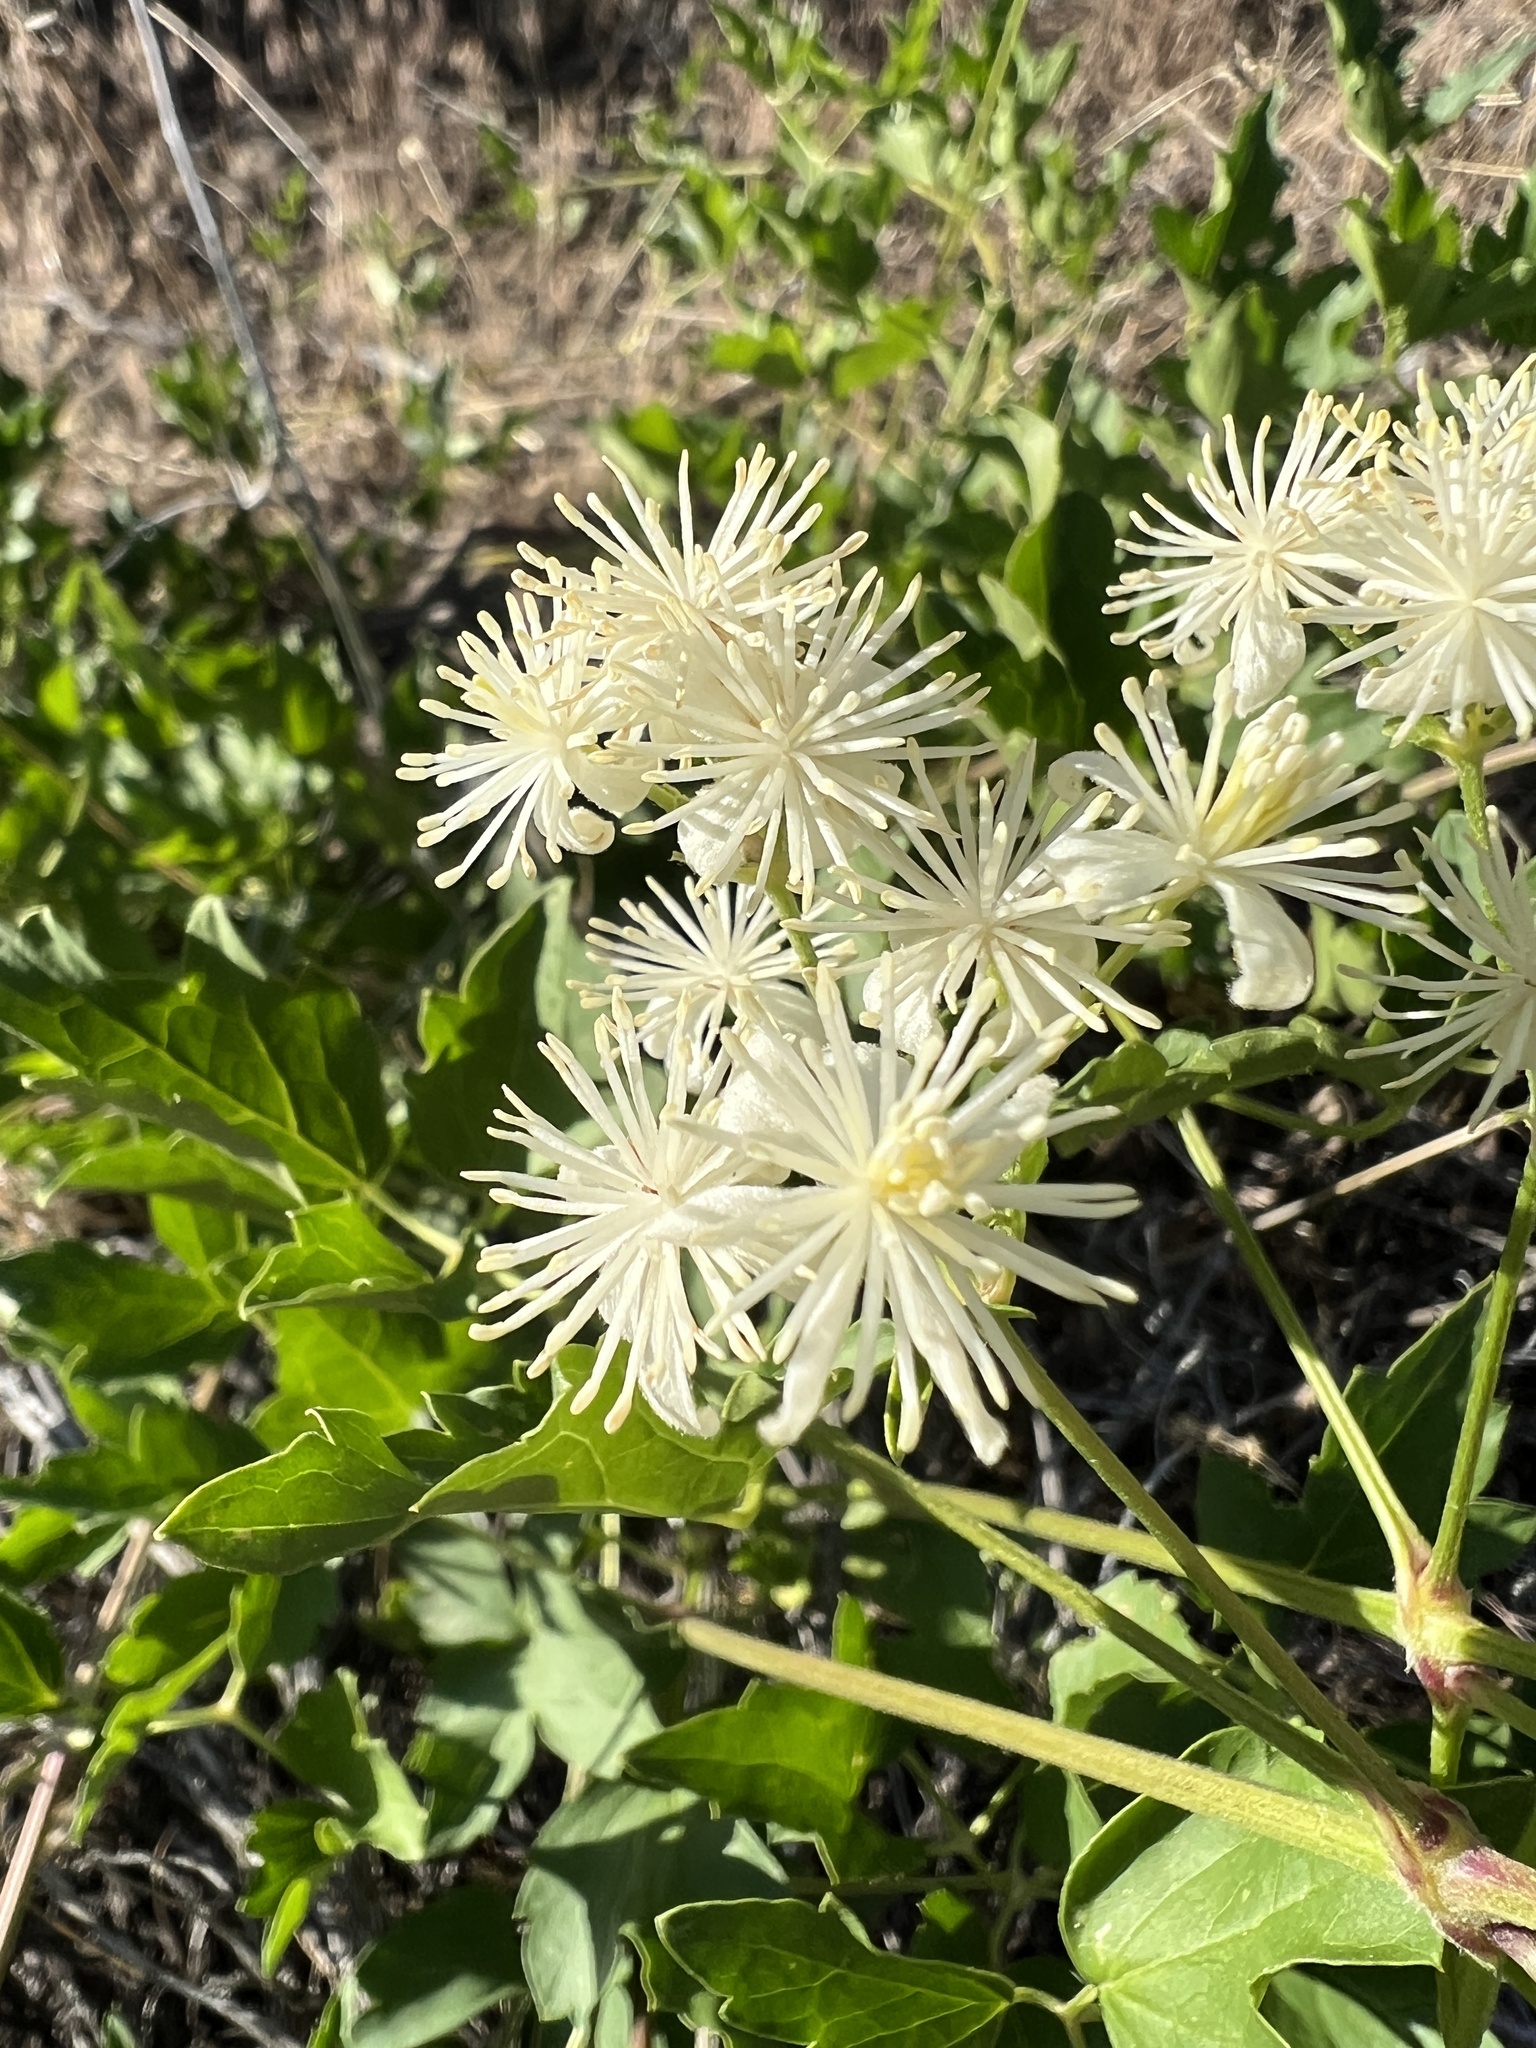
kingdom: Plantae
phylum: Tracheophyta
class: Magnoliopsida
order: Ranunculales
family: Ranunculaceae
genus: Clematis
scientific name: Clematis ligusticifolia
